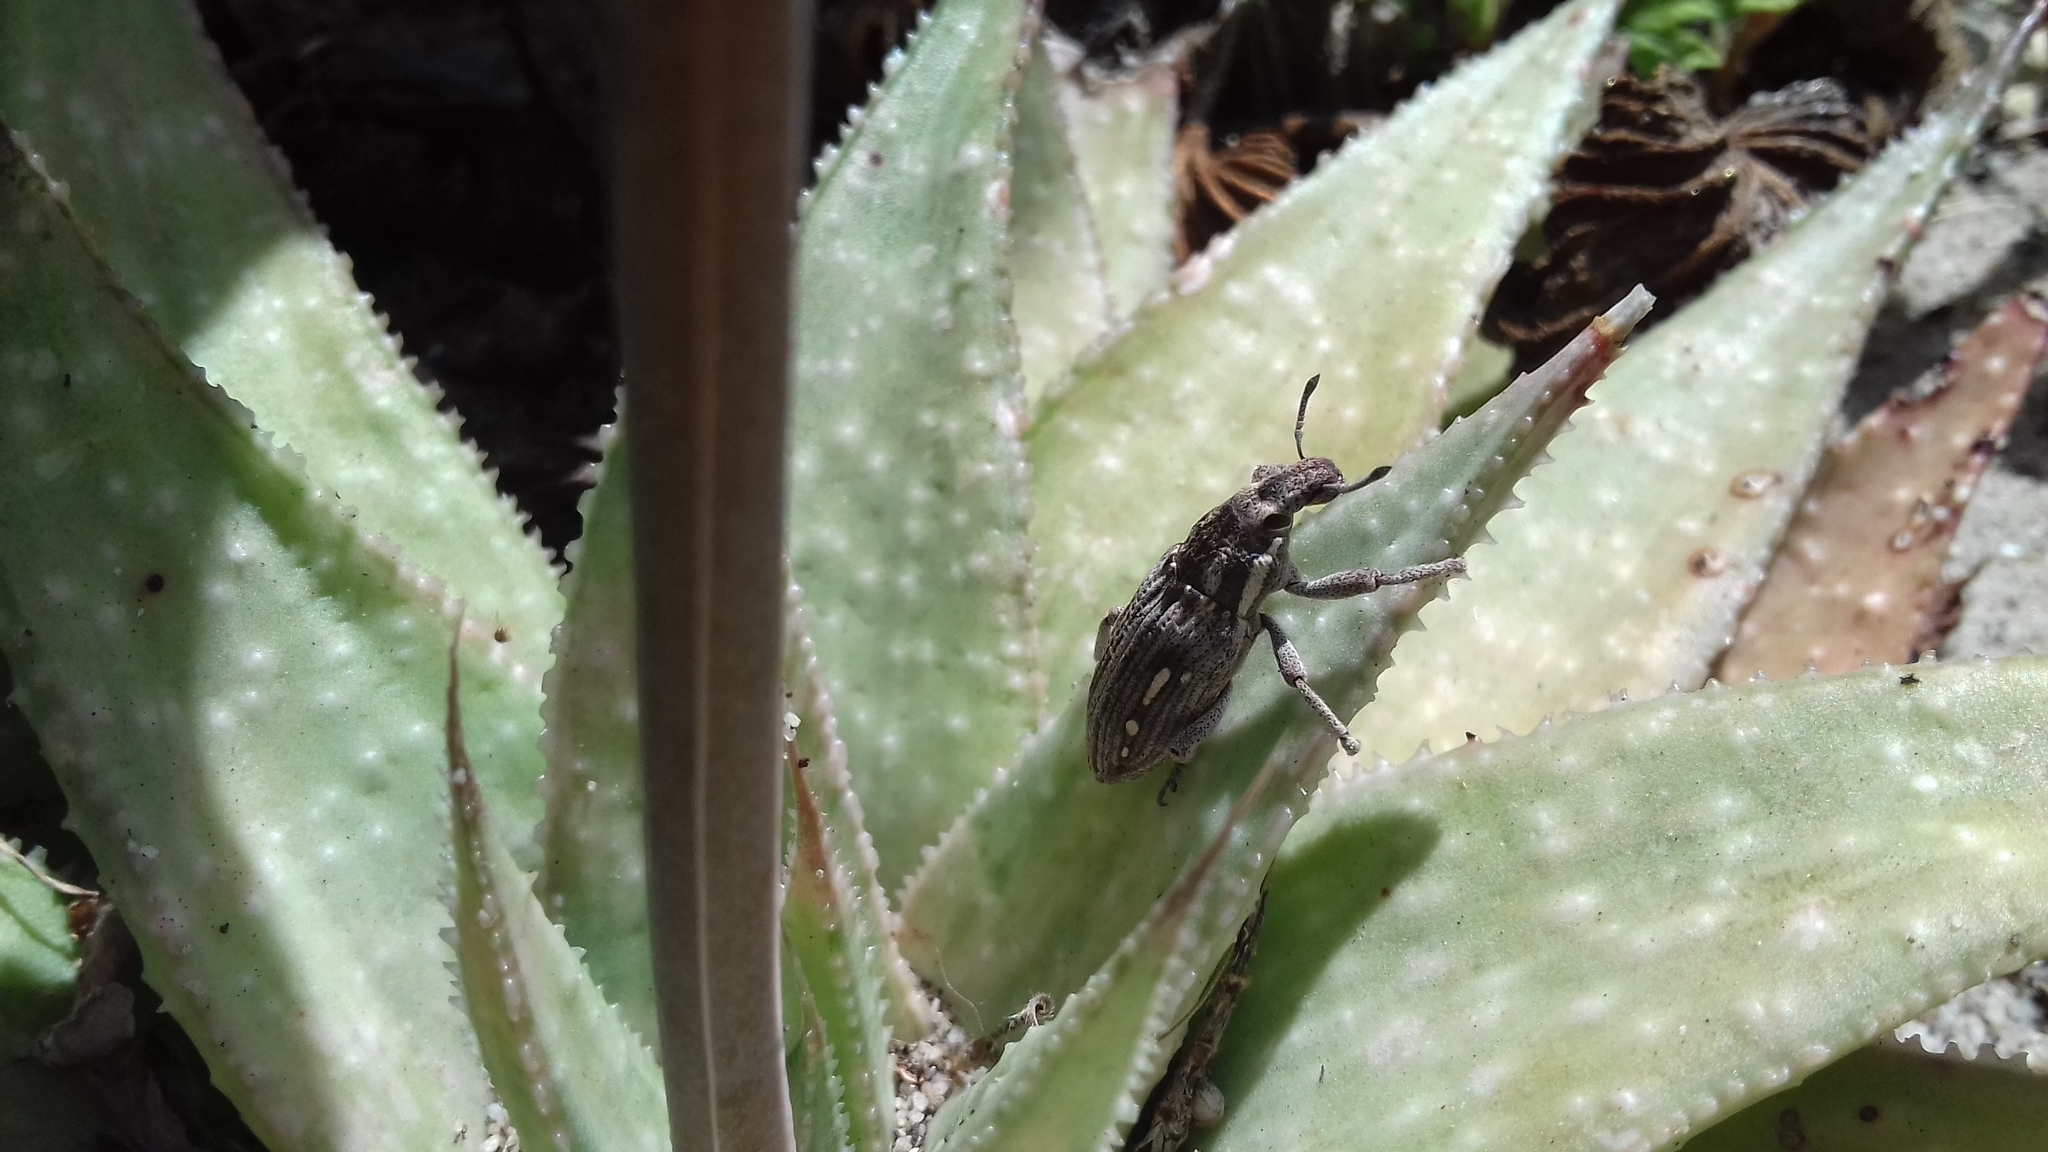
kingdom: Animalia
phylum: Arthropoda
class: Insecta
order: Coleoptera
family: Curculionidae
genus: Prionorhinus
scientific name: Prionorhinus canus
